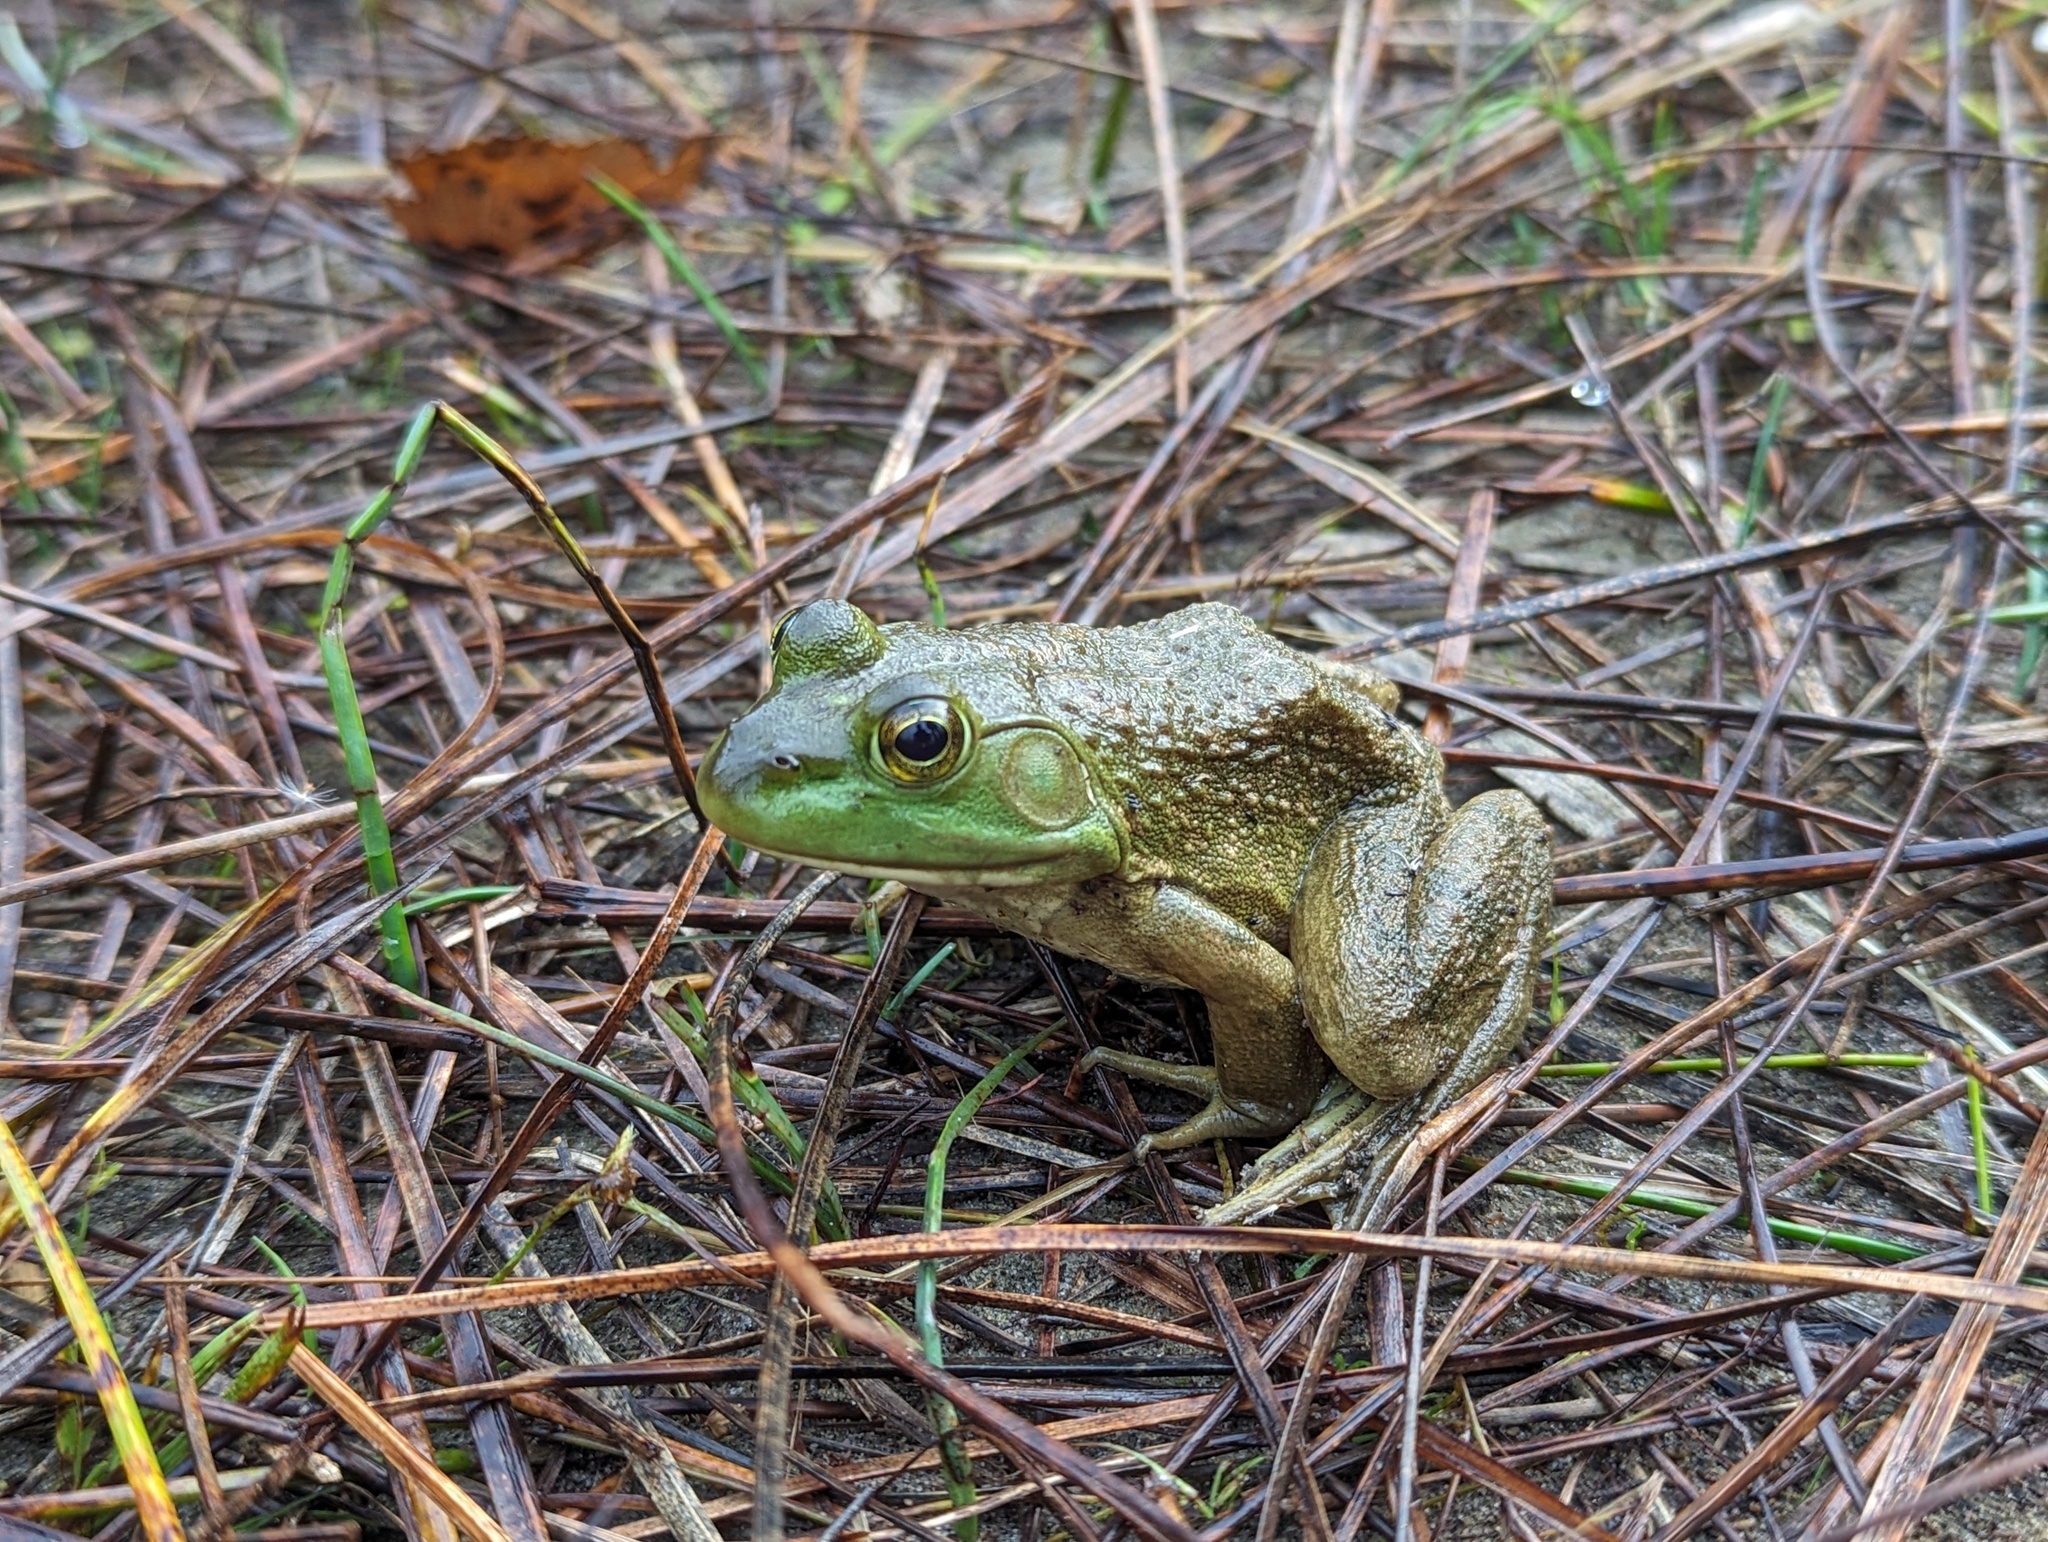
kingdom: Animalia
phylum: Chordata
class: Amphibia
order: Anura
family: Ranidae
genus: Lithobates
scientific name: Lithobates catesbeianus
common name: American bullfrog
